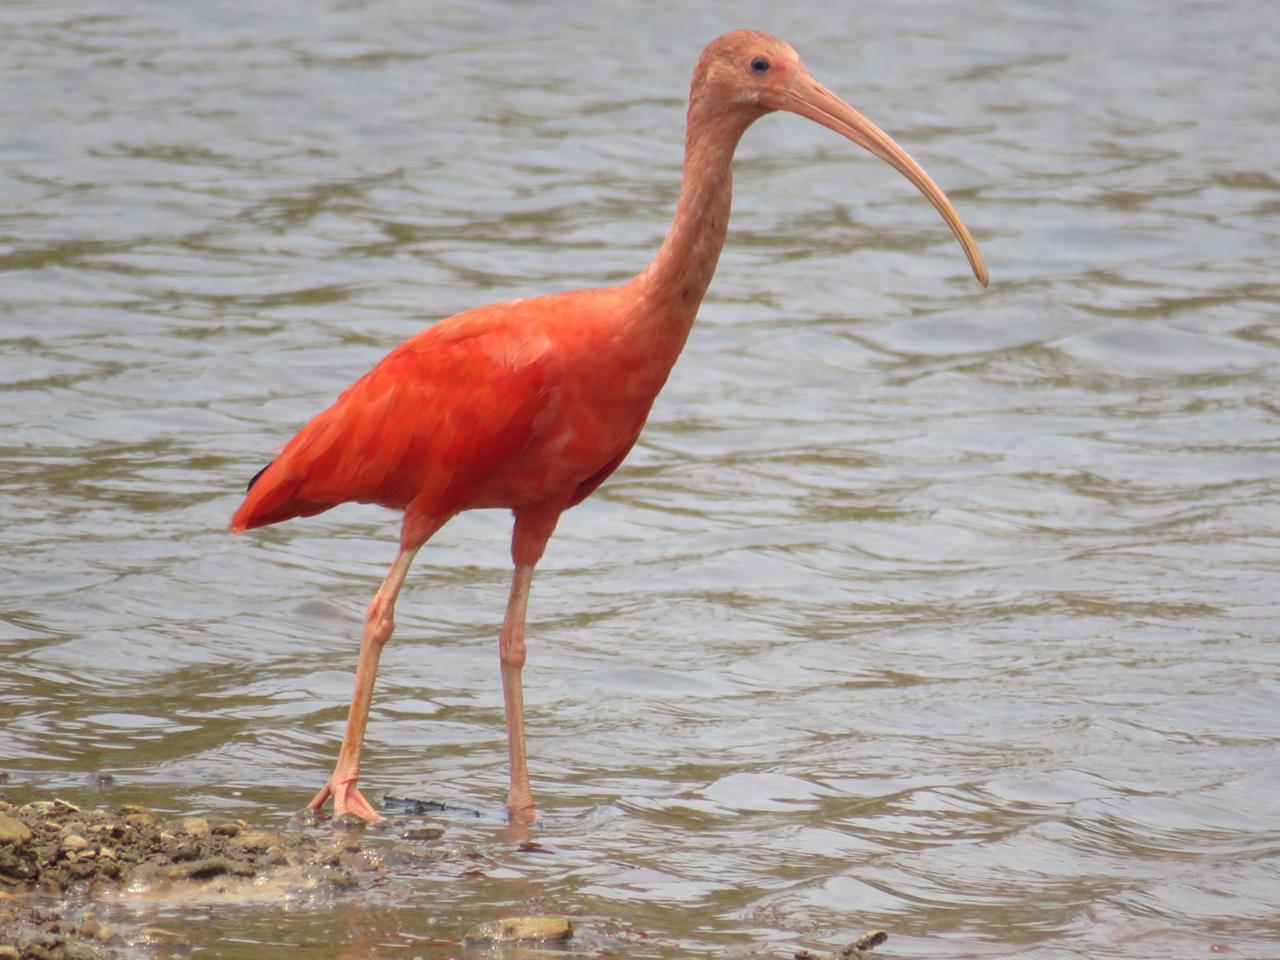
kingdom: Animalia
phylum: Chordata
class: Aves
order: Pelecaniformes
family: Threskiornithidae
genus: Eudocimus
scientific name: Eudocimus ruber
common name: Scarlet ibis
